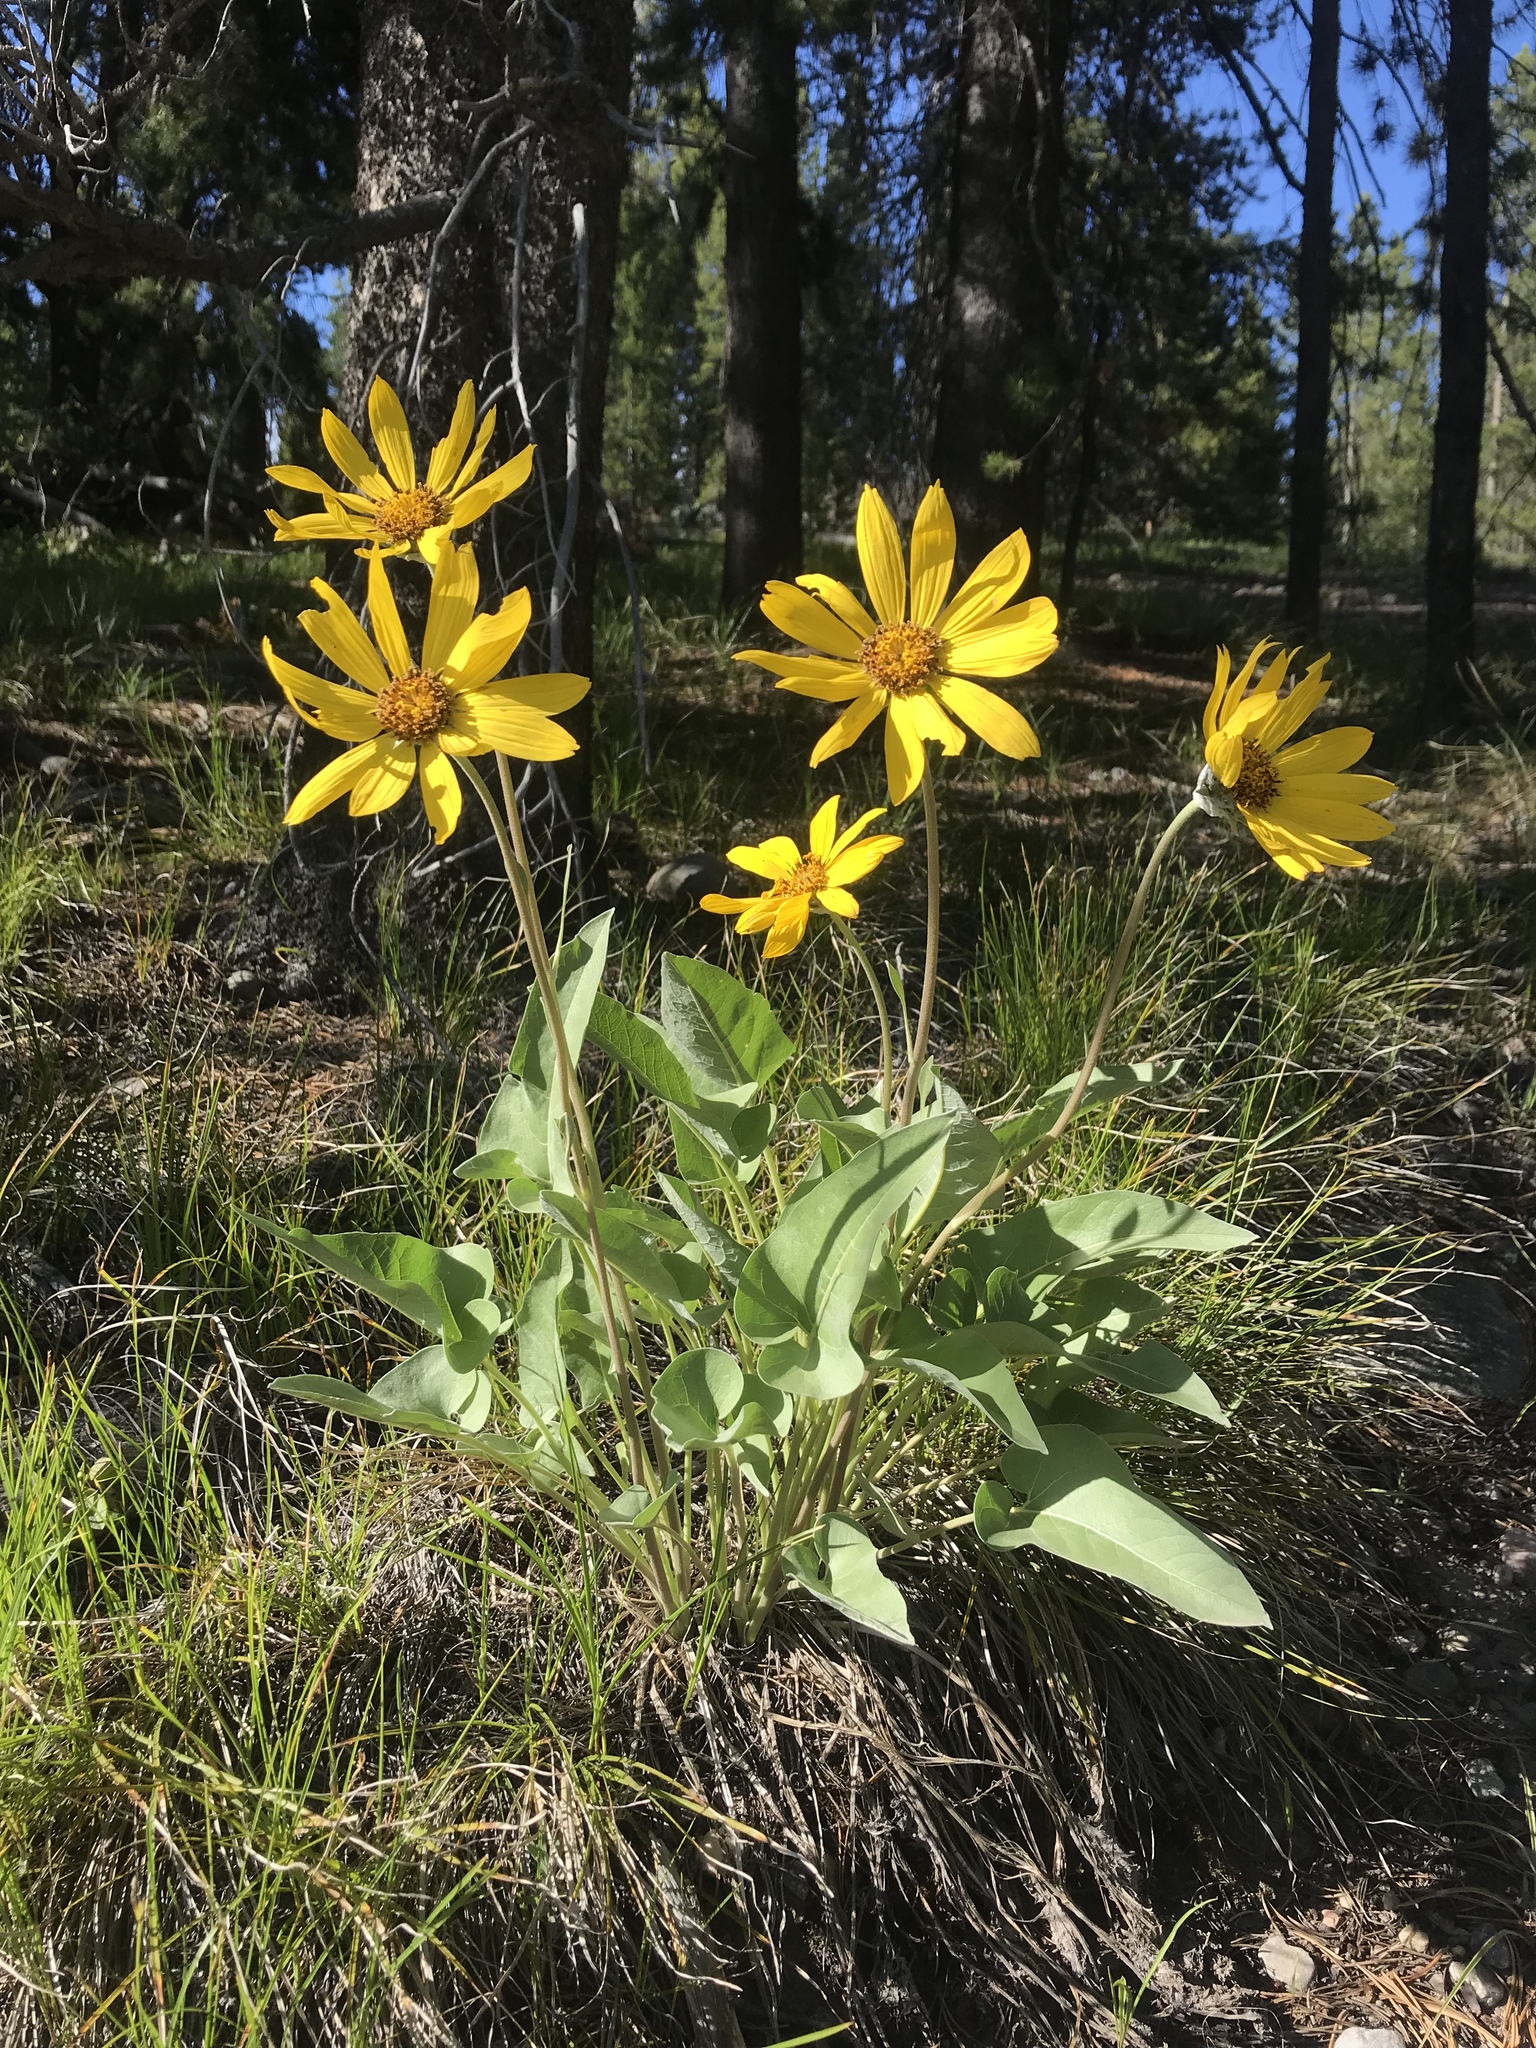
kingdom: Plantae
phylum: Tracheophyta
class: Magnoliopsida
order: Asterales
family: Asteraceae
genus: Wyethia
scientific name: Wyethia sagittata
